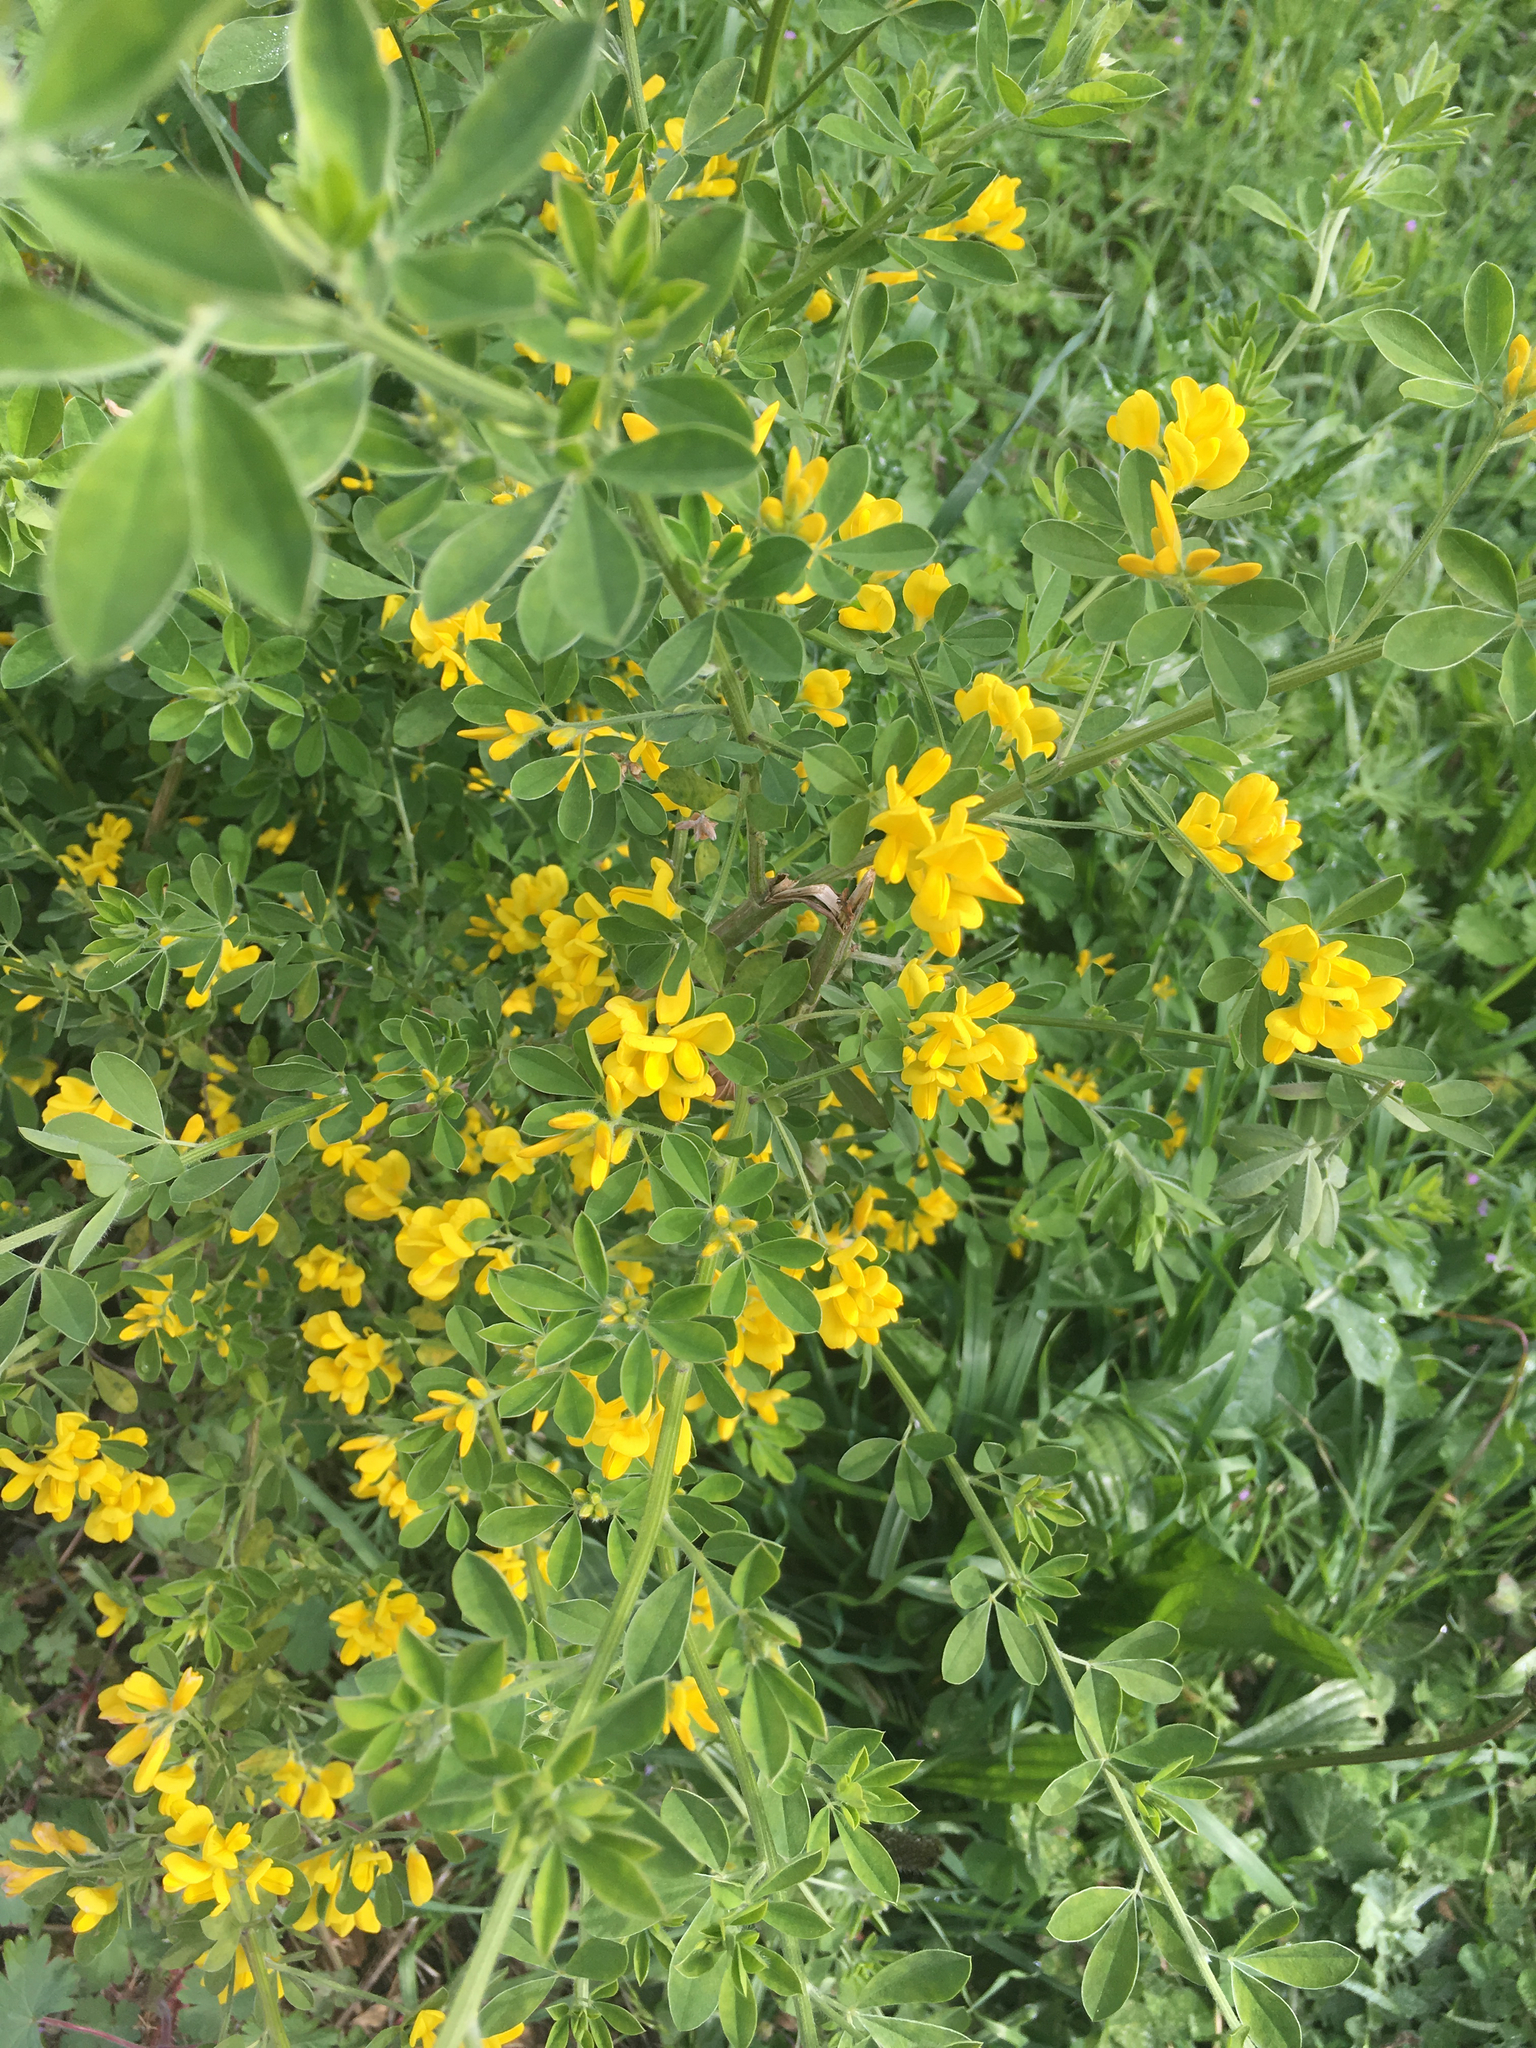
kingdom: Plantae
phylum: Tracheophyta
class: Magnoliopsida
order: Fabales
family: Fabaceae
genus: Genista
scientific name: Genista monspessulana
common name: Montpellier broom
